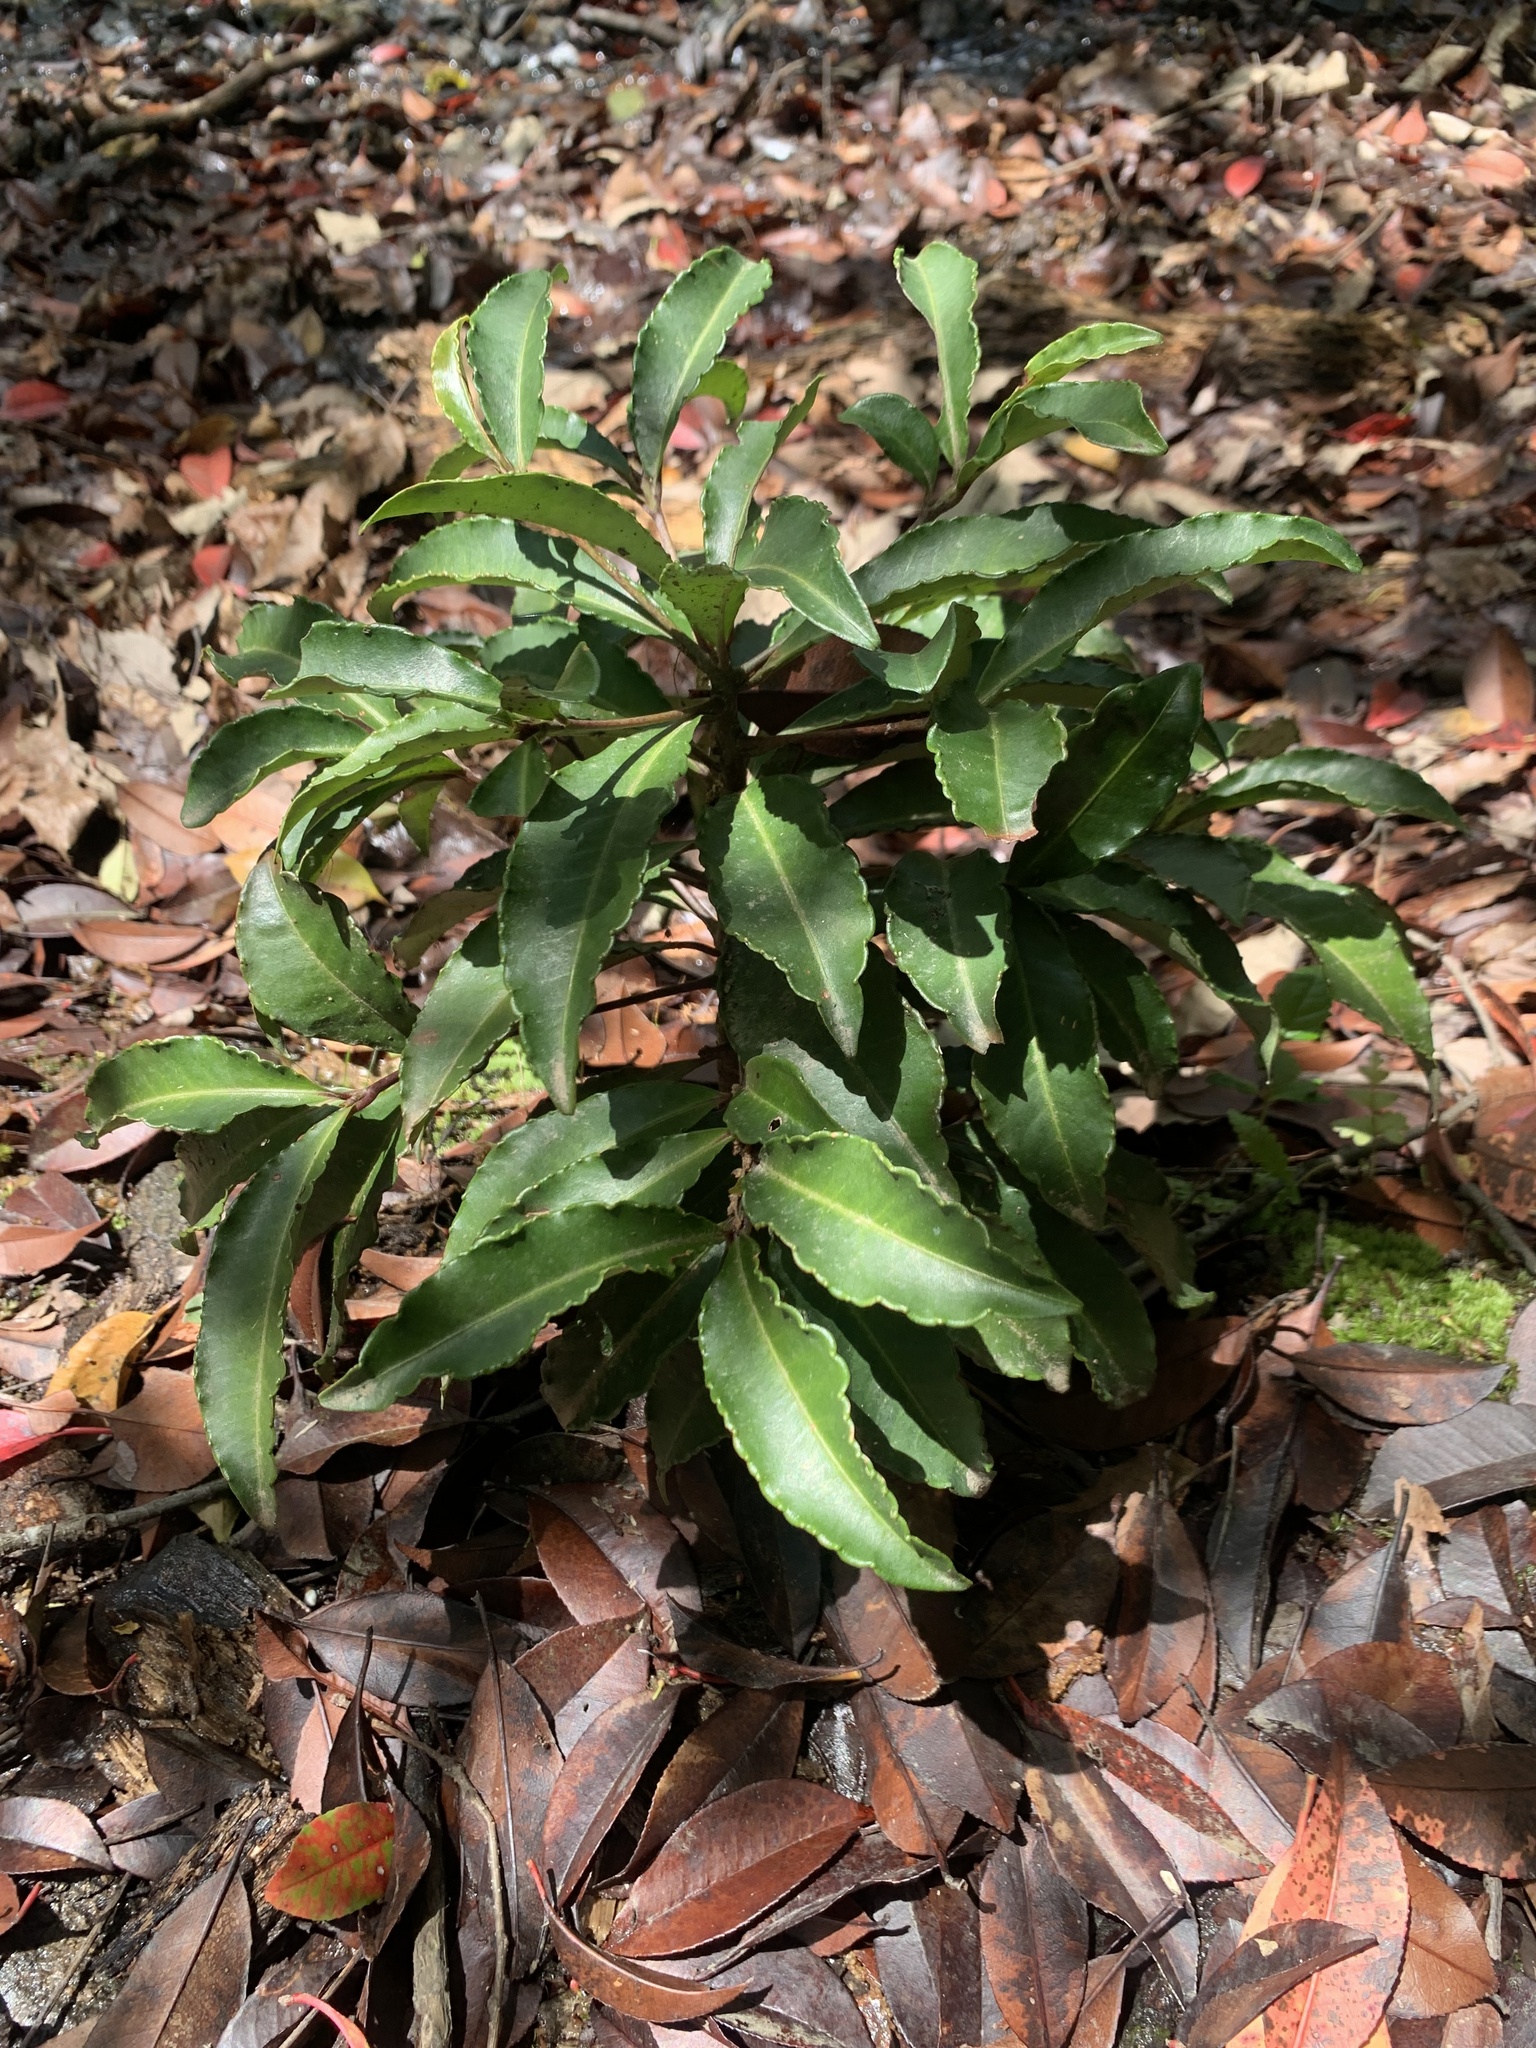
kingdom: Plantae
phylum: Tracheophyta
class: Magnoliopsida
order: Ericales
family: Primulaceae
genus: Ardisia
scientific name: Ardisia crenata
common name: Hen's eyes
